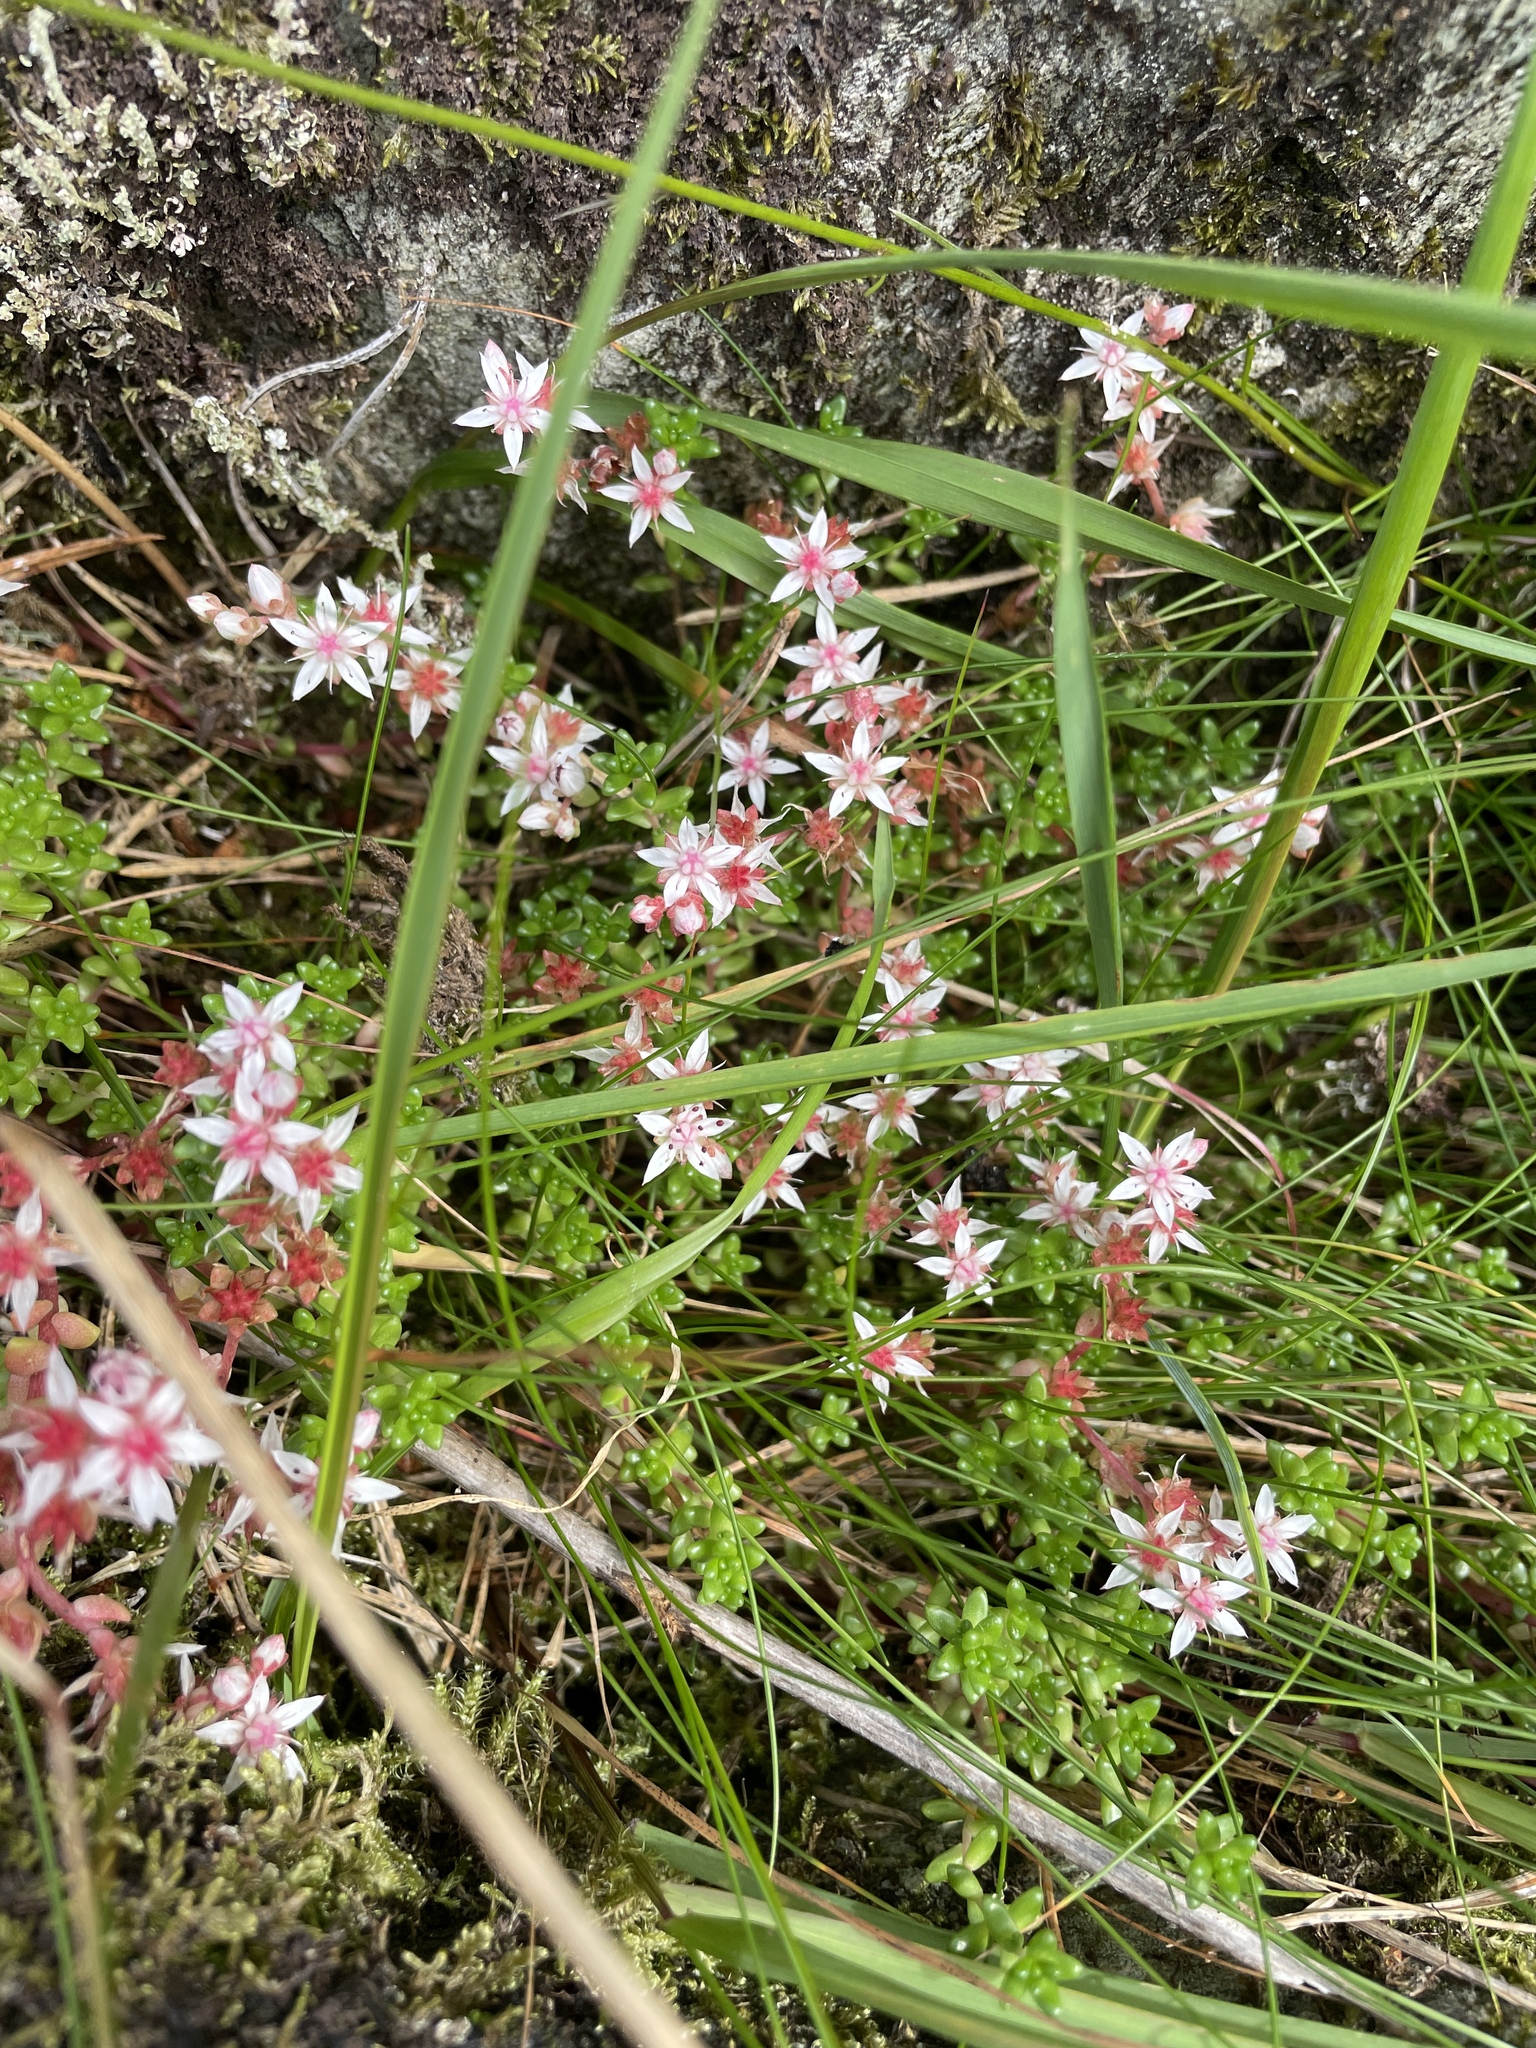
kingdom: Plantae
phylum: Tracheophyta
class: Magnoliopsida
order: Saxifragales
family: Crassulaceae
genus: Sedum
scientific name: Sedum anglicum
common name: English stonecrop
